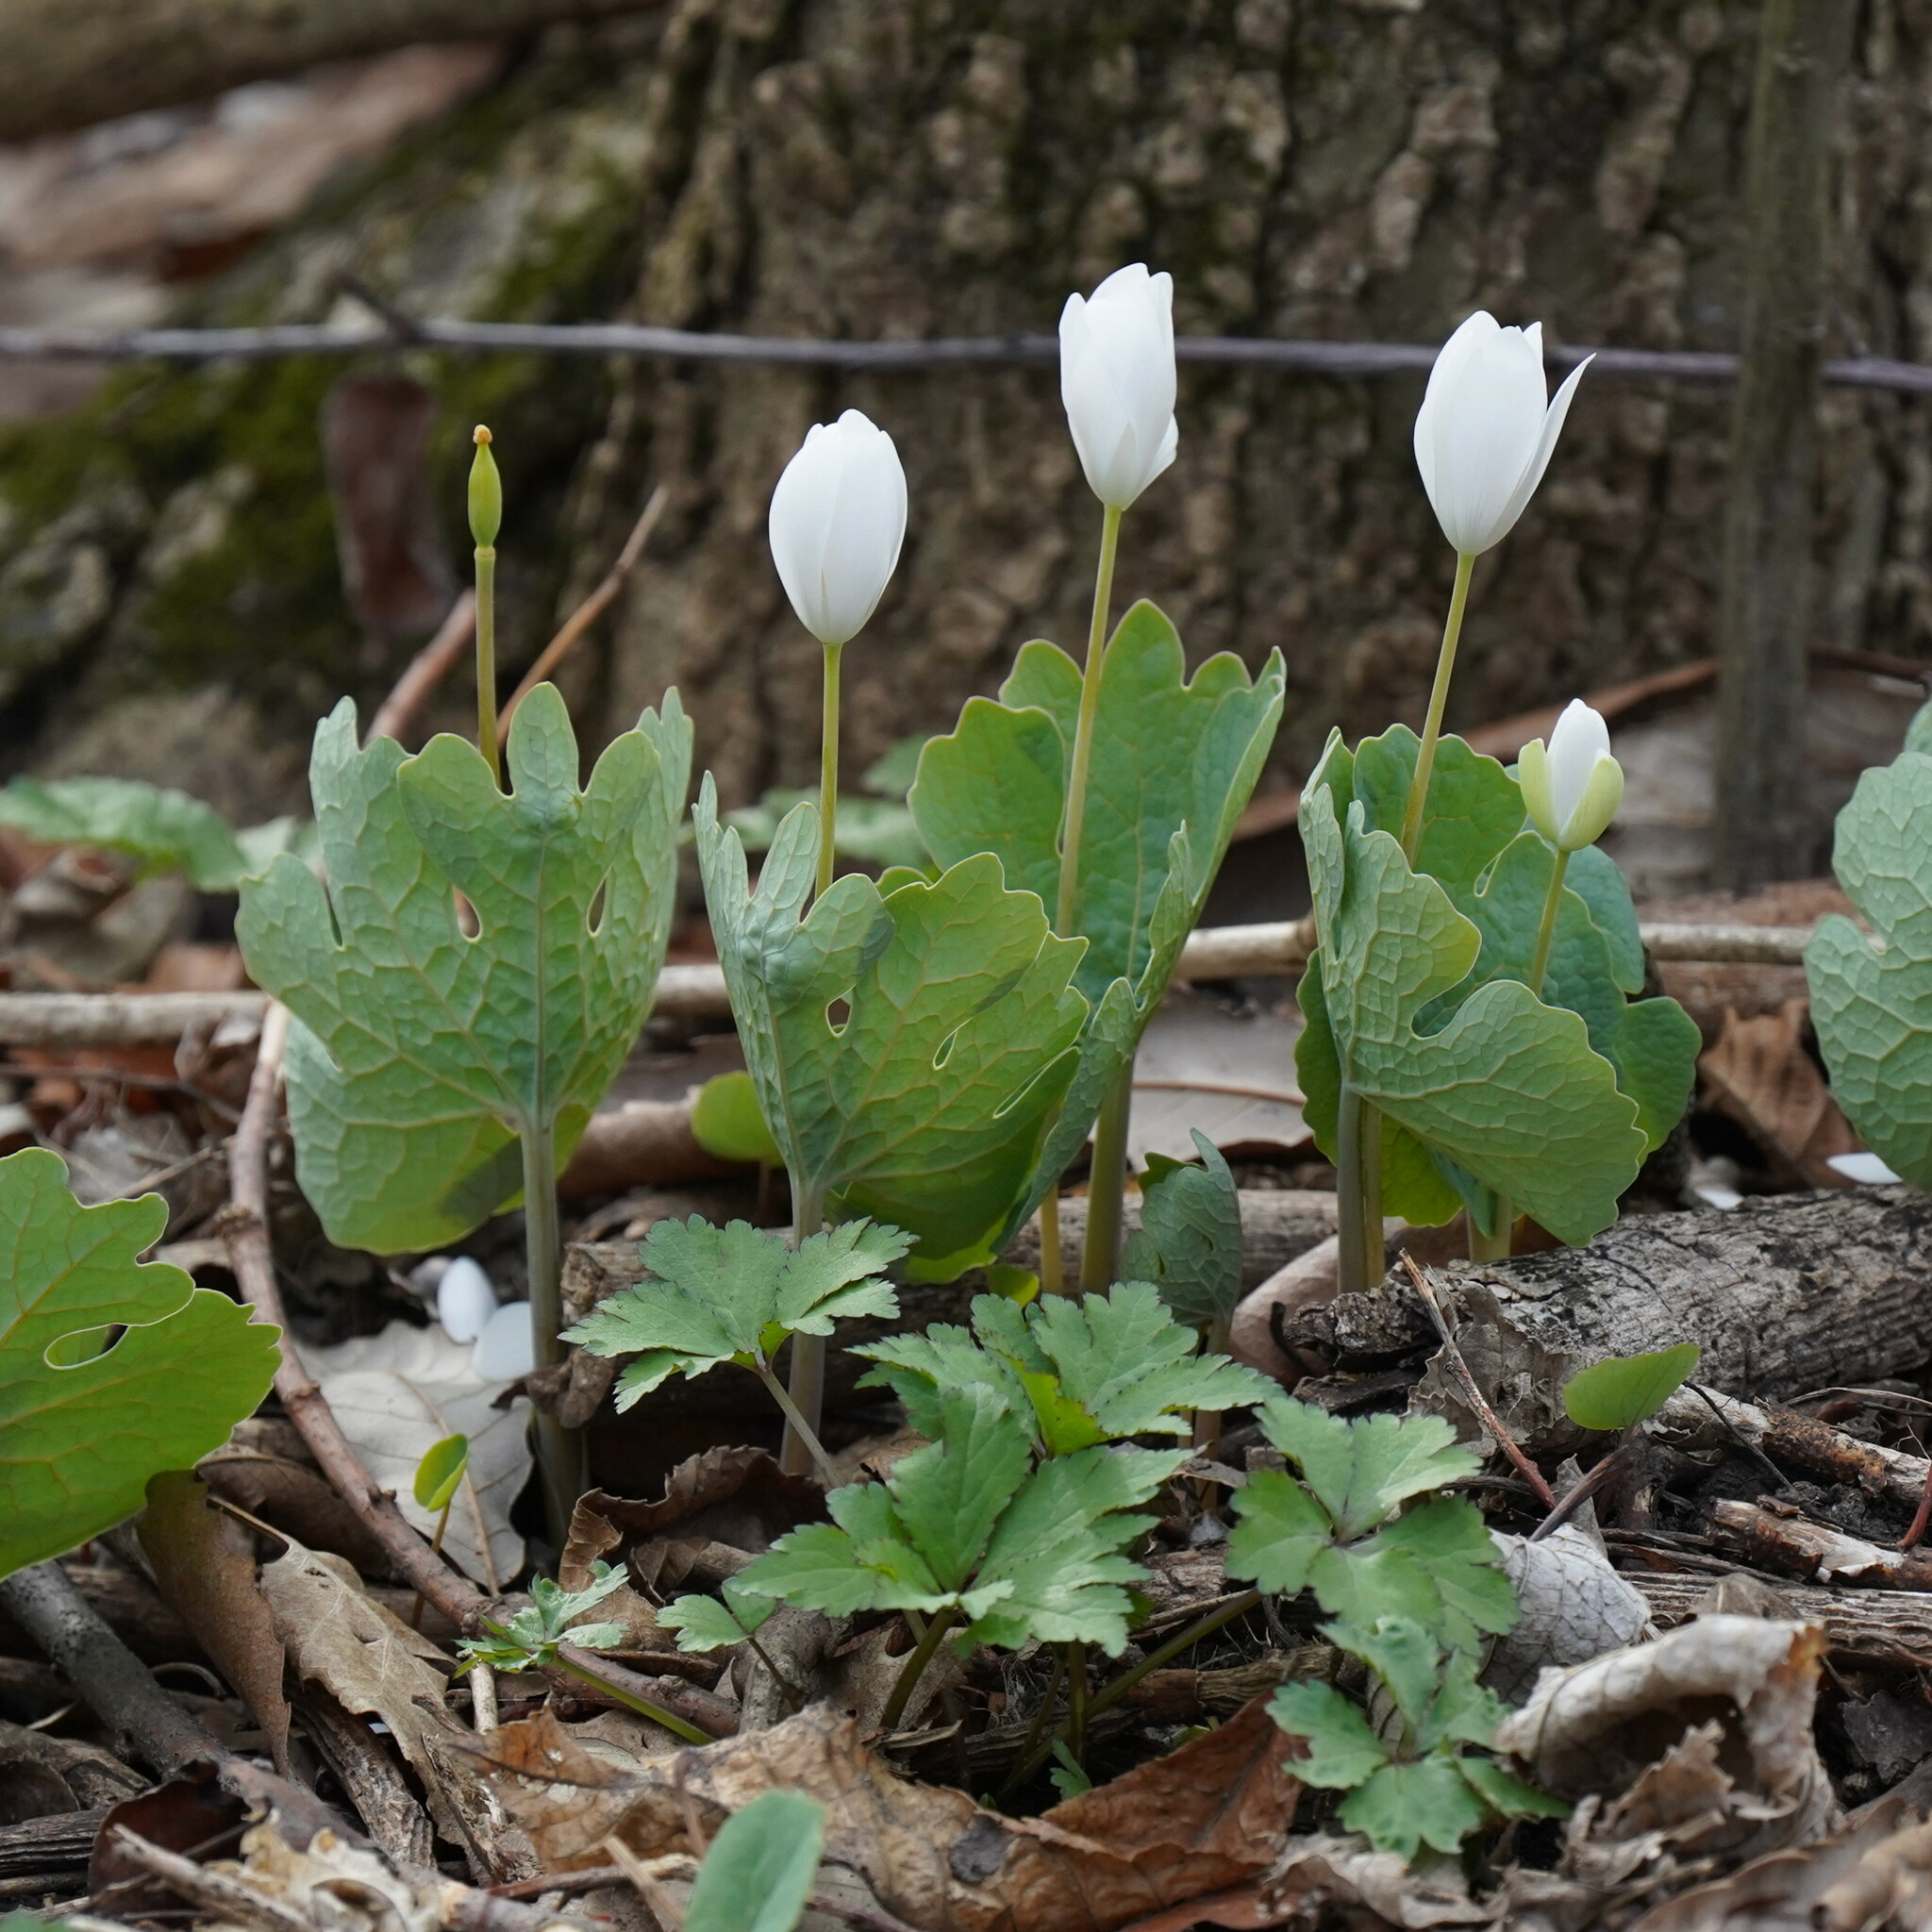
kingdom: Plantae
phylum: Tracheophyta
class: Magnoliopsida
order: Ranunculales
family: Papaveraceae
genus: Sanguinaria
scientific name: Sanguinaria canadensis
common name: Bloodroot
